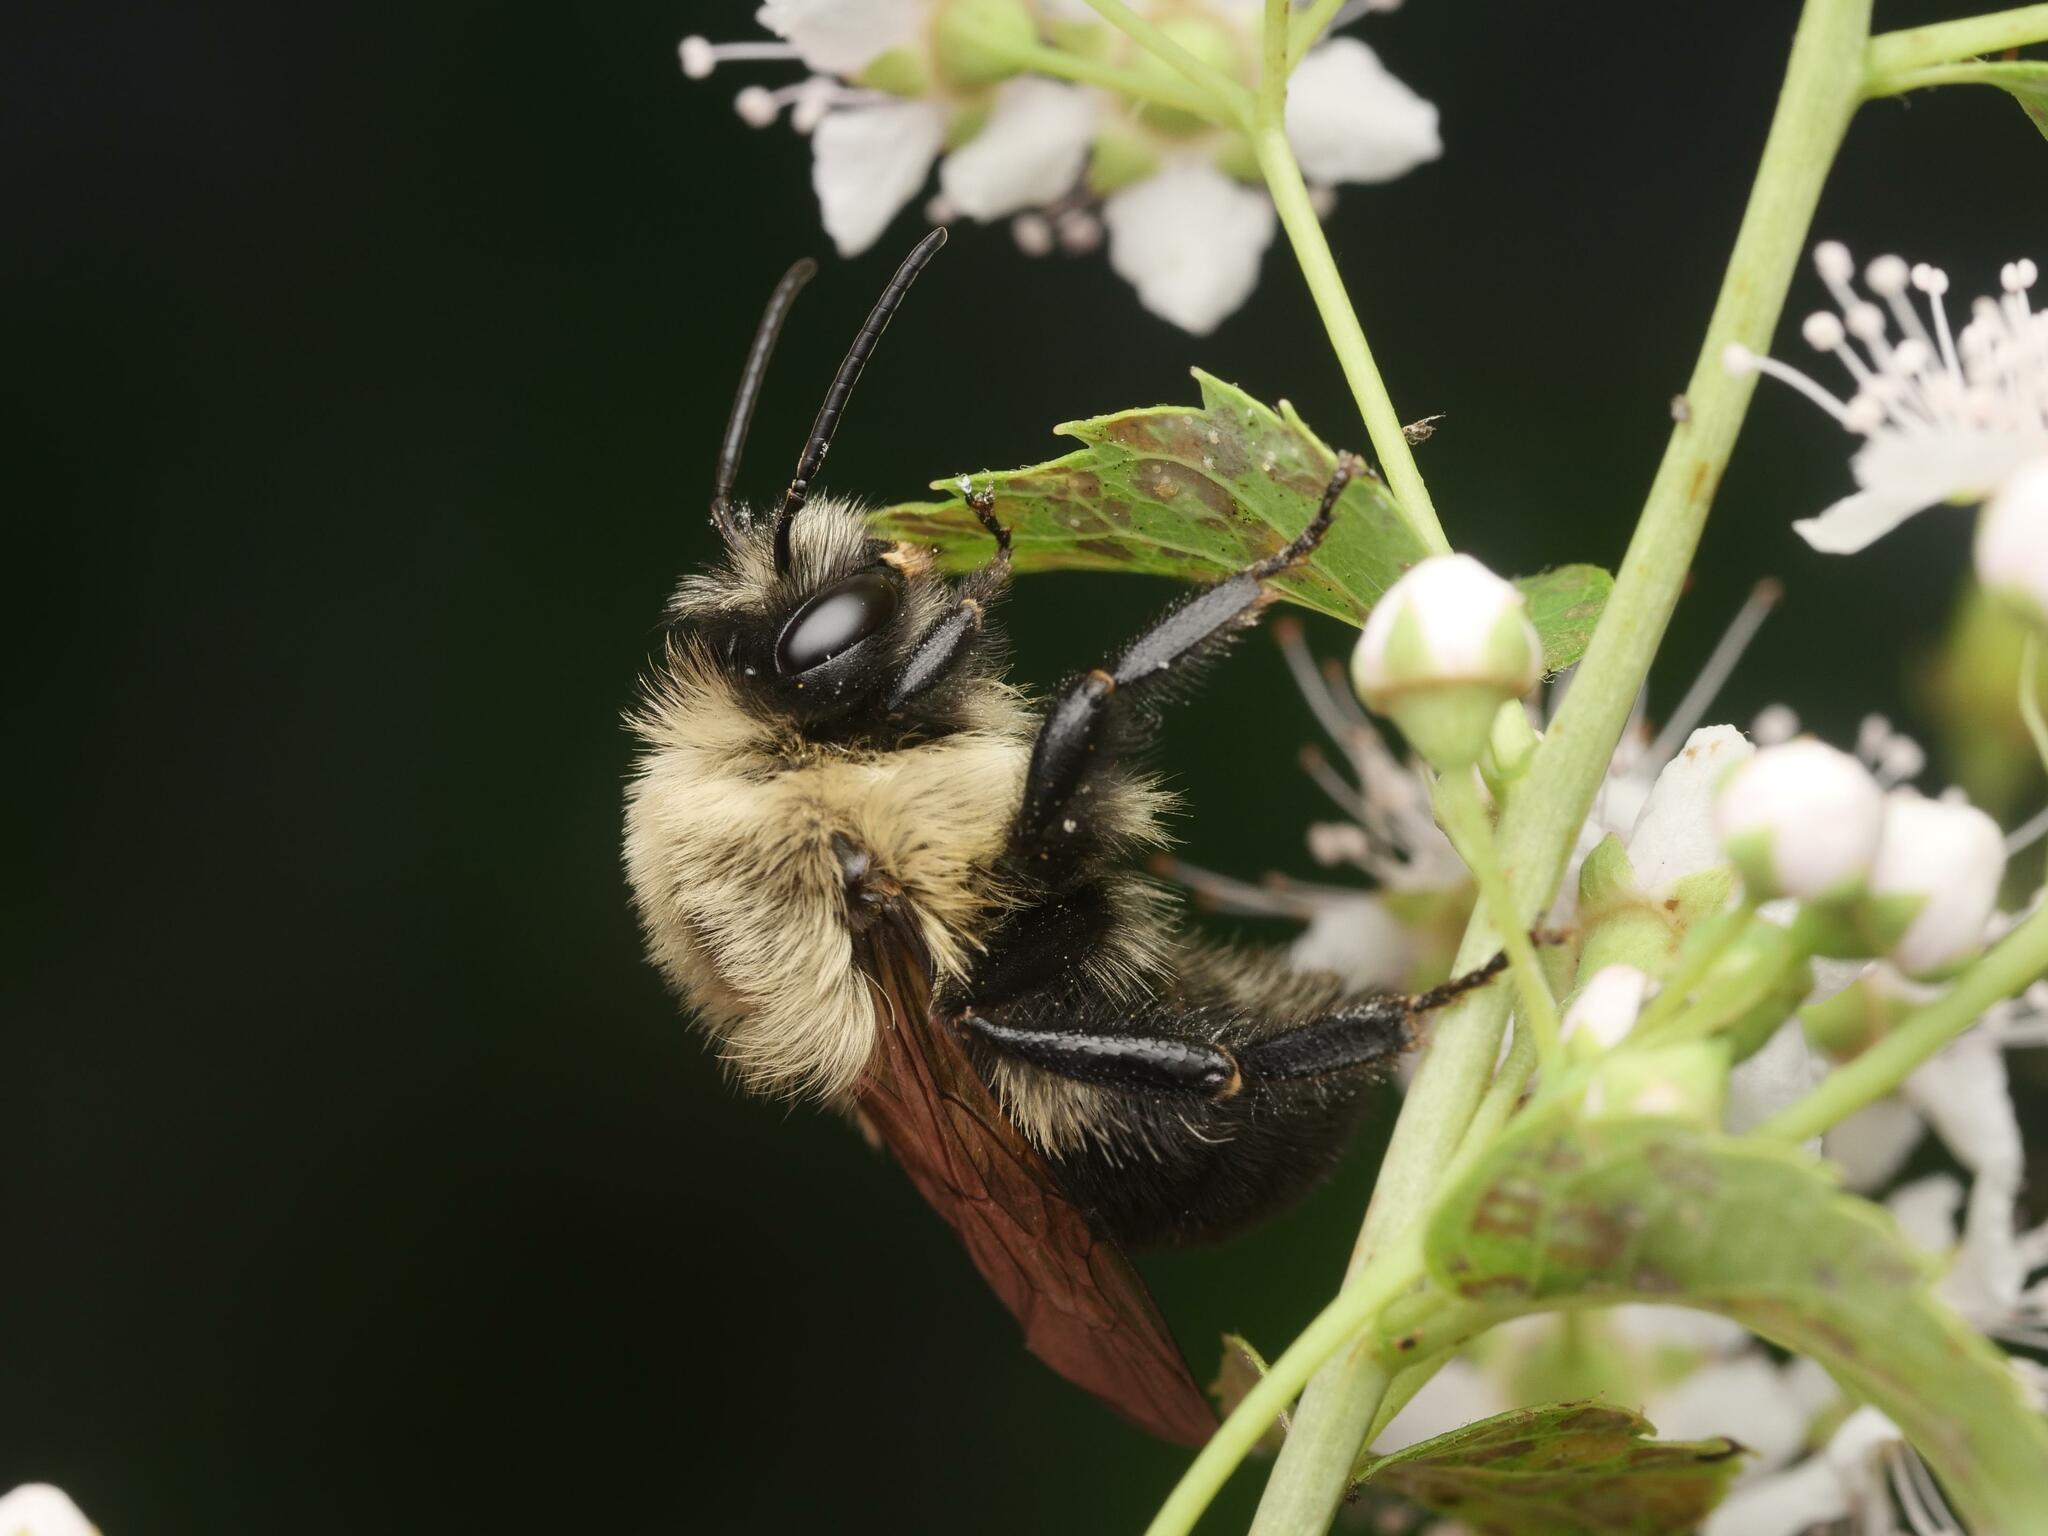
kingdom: Animalia
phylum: Arthropoda
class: Insecta
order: Hymenoptera
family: Apidae
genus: Bombus
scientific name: Bombus impatiens
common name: Common eastern bumble bee
